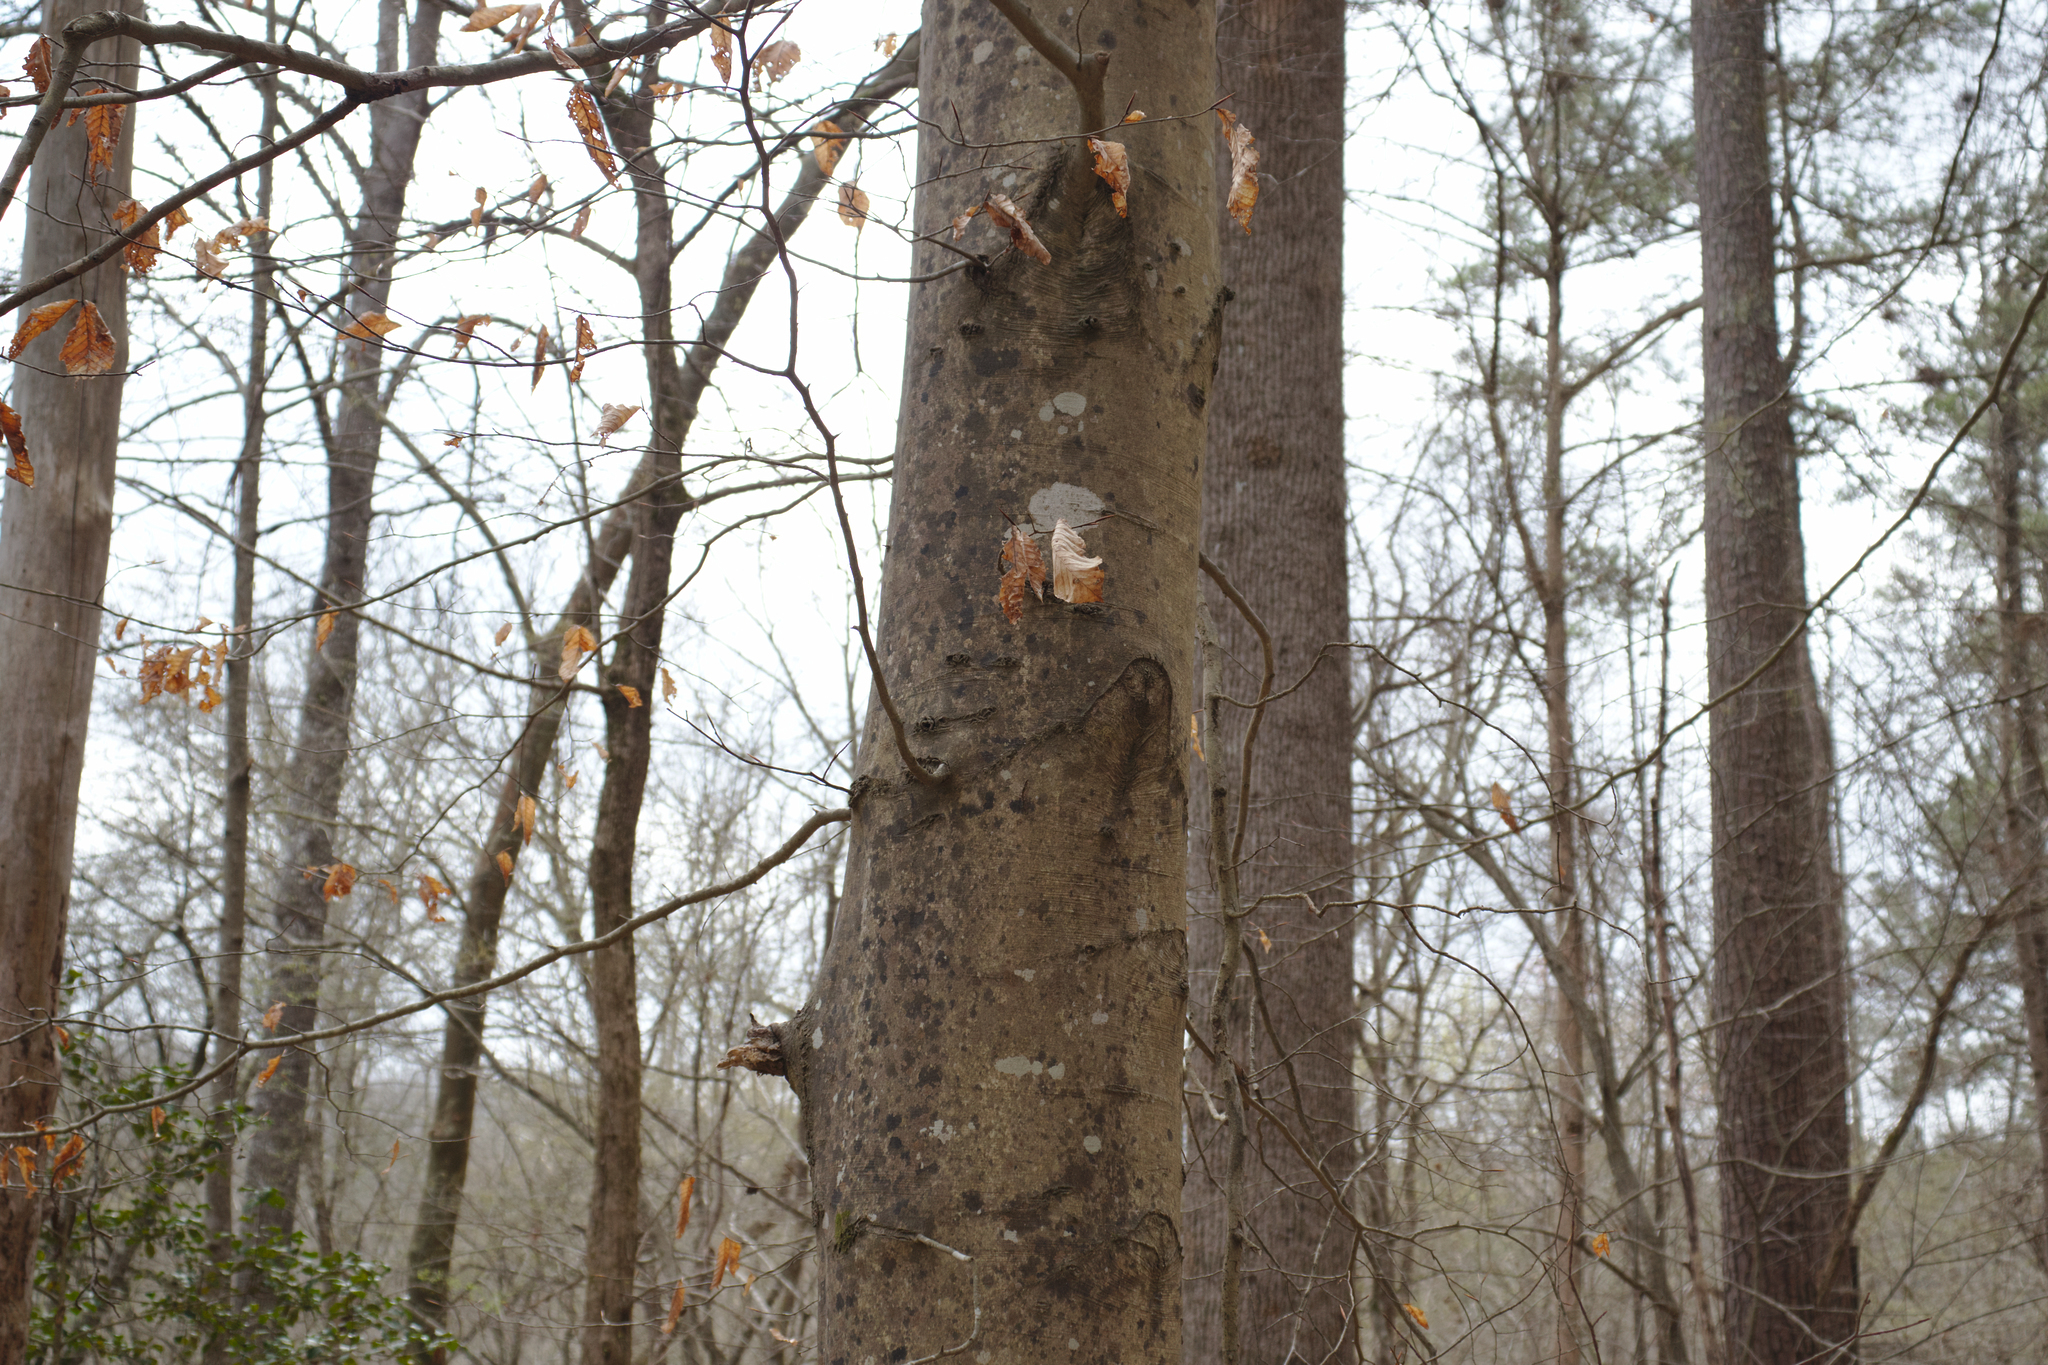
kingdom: Plantae
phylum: Tracheophyta
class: Magnoliopsida
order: Fagales
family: Fagaceae
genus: Fagus
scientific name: Fagus grandifolia
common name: American beech
